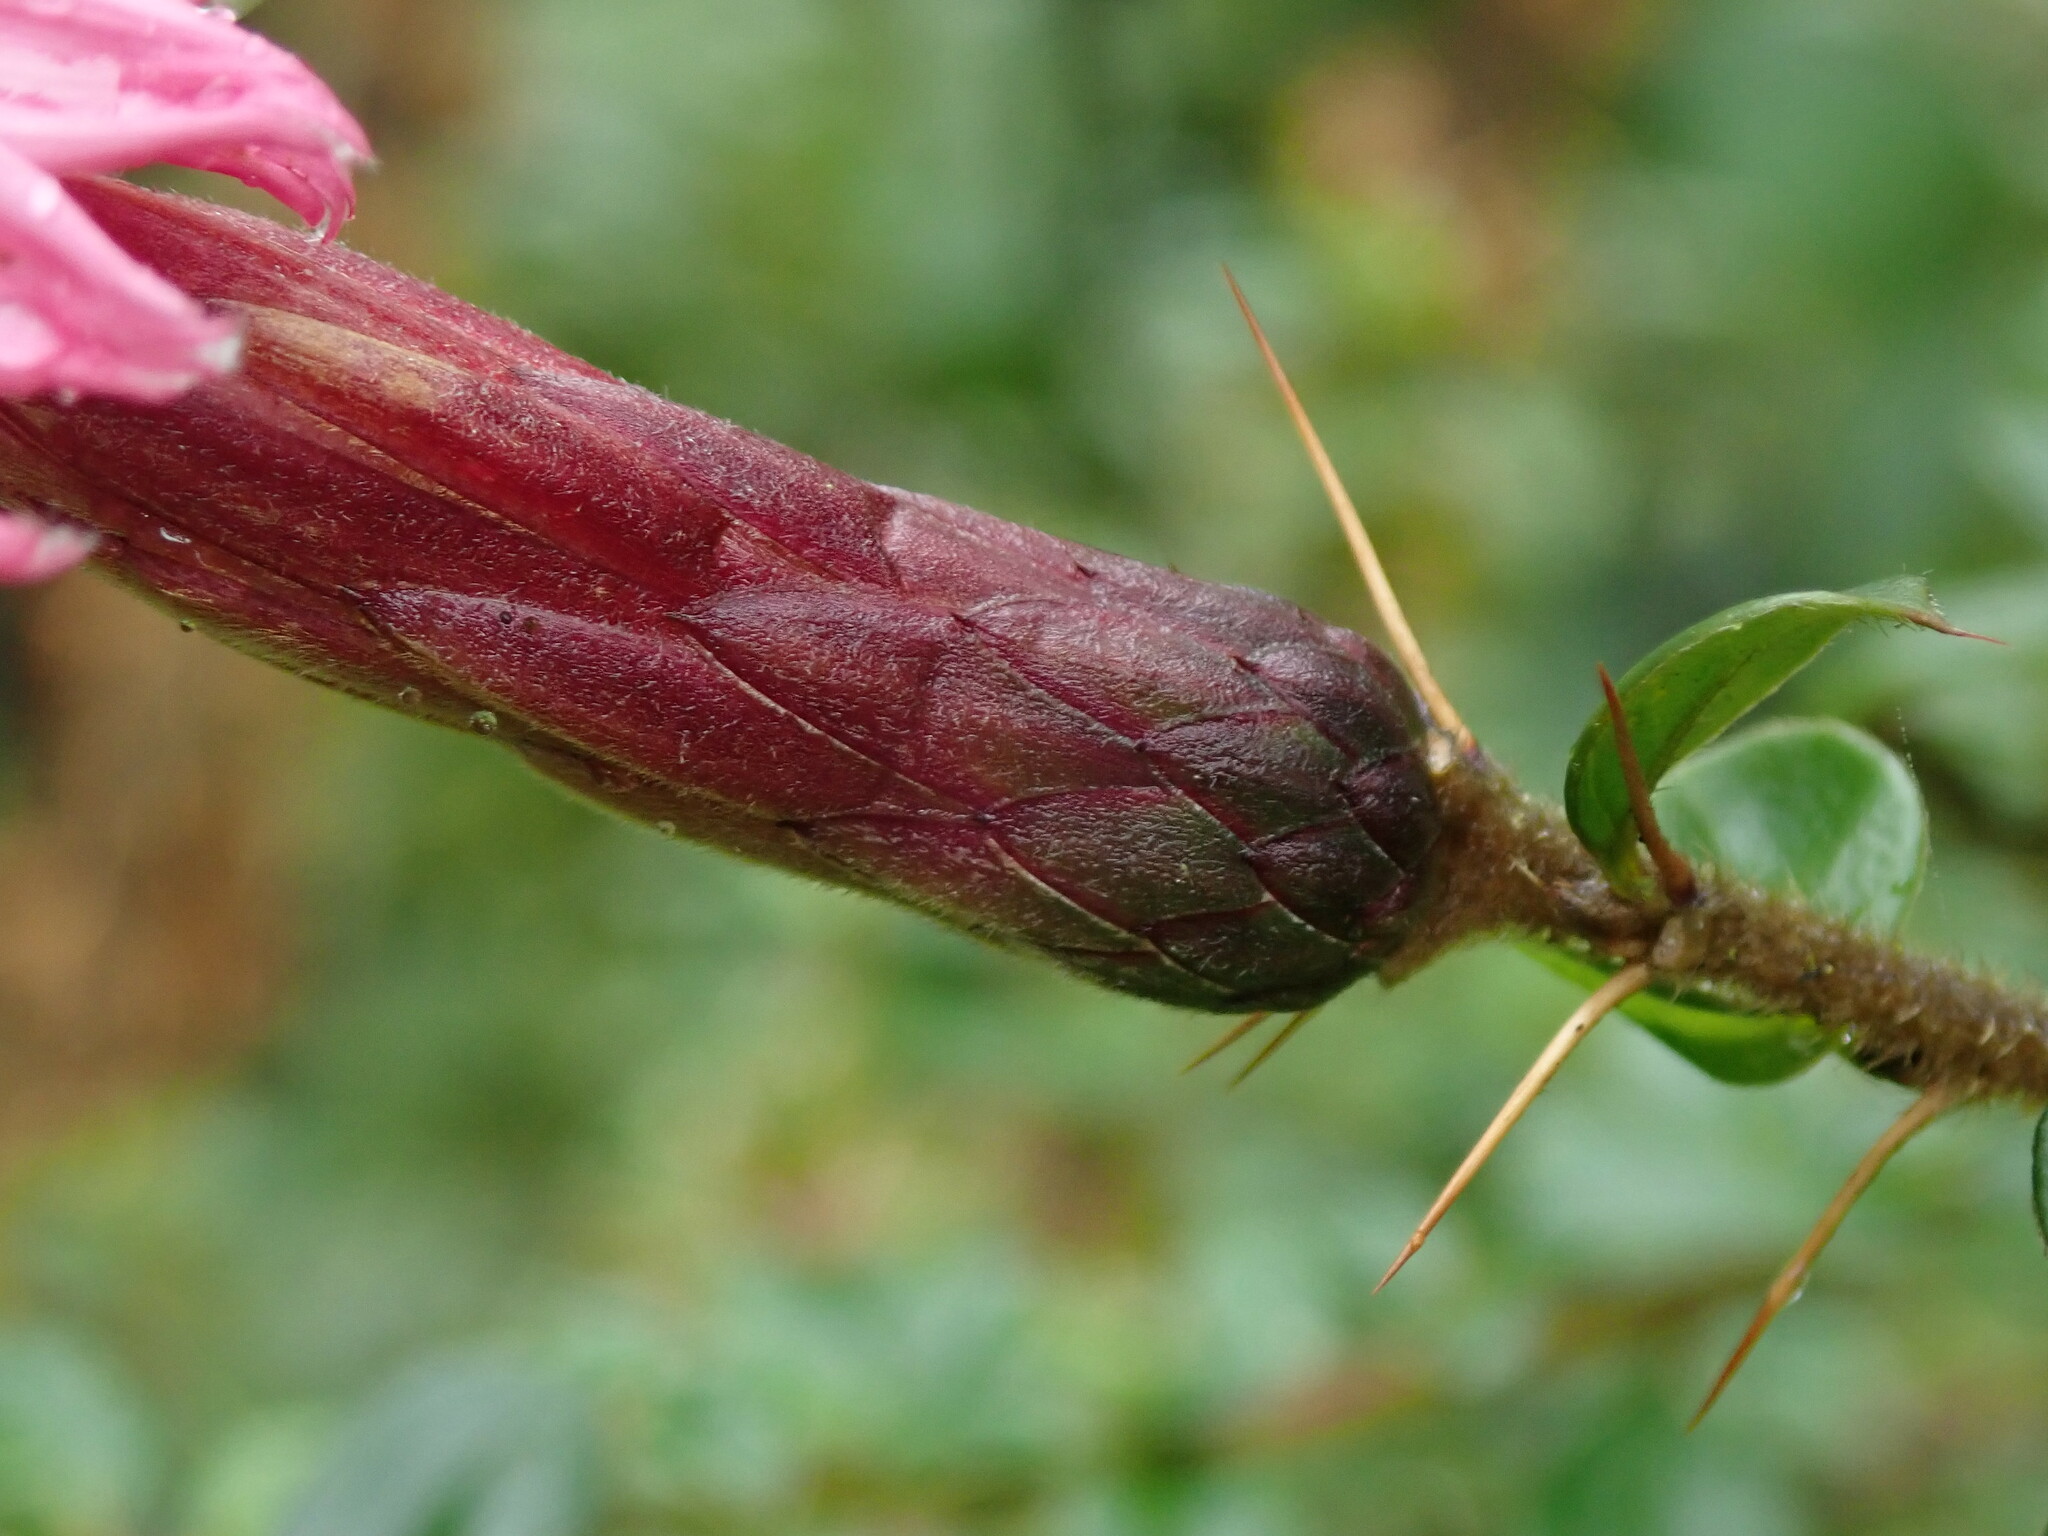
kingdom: Plantae
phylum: Tracheophyta
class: Magnoliopsida
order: Asterales
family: Asteraceae
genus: Barnadesia
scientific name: Barnadesia polyacantha
